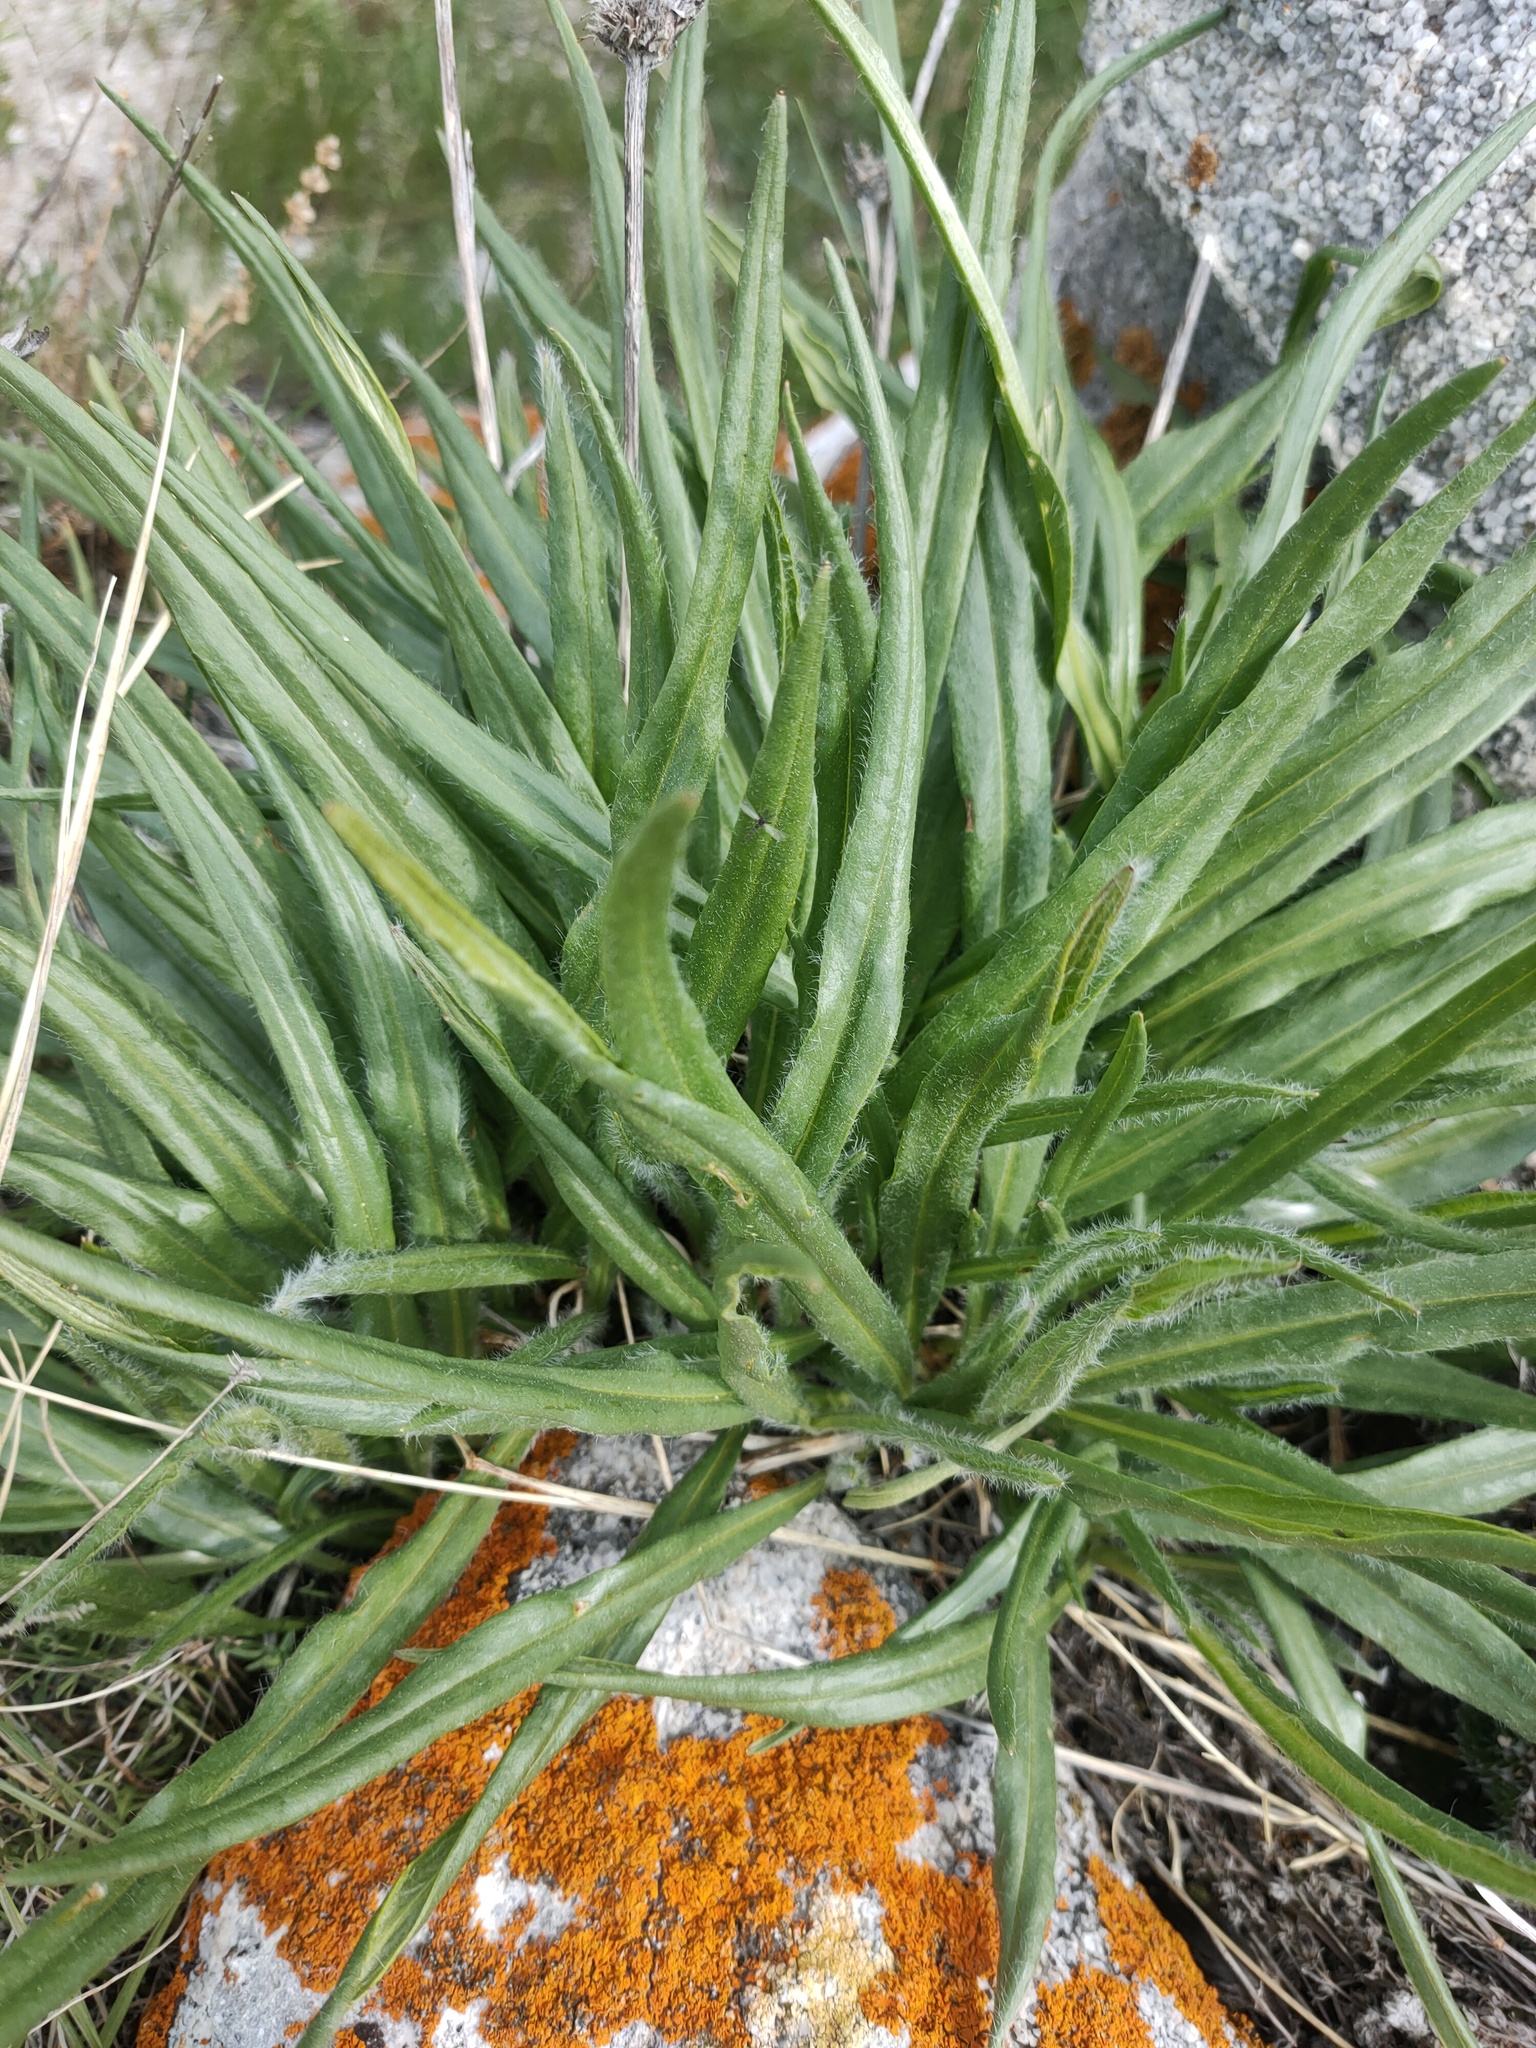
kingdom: Plantae
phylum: Tracheophyta
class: Magnoliopsida
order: Asterales
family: Asteraceae
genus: Saussurea
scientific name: Saussurea schanginiana
